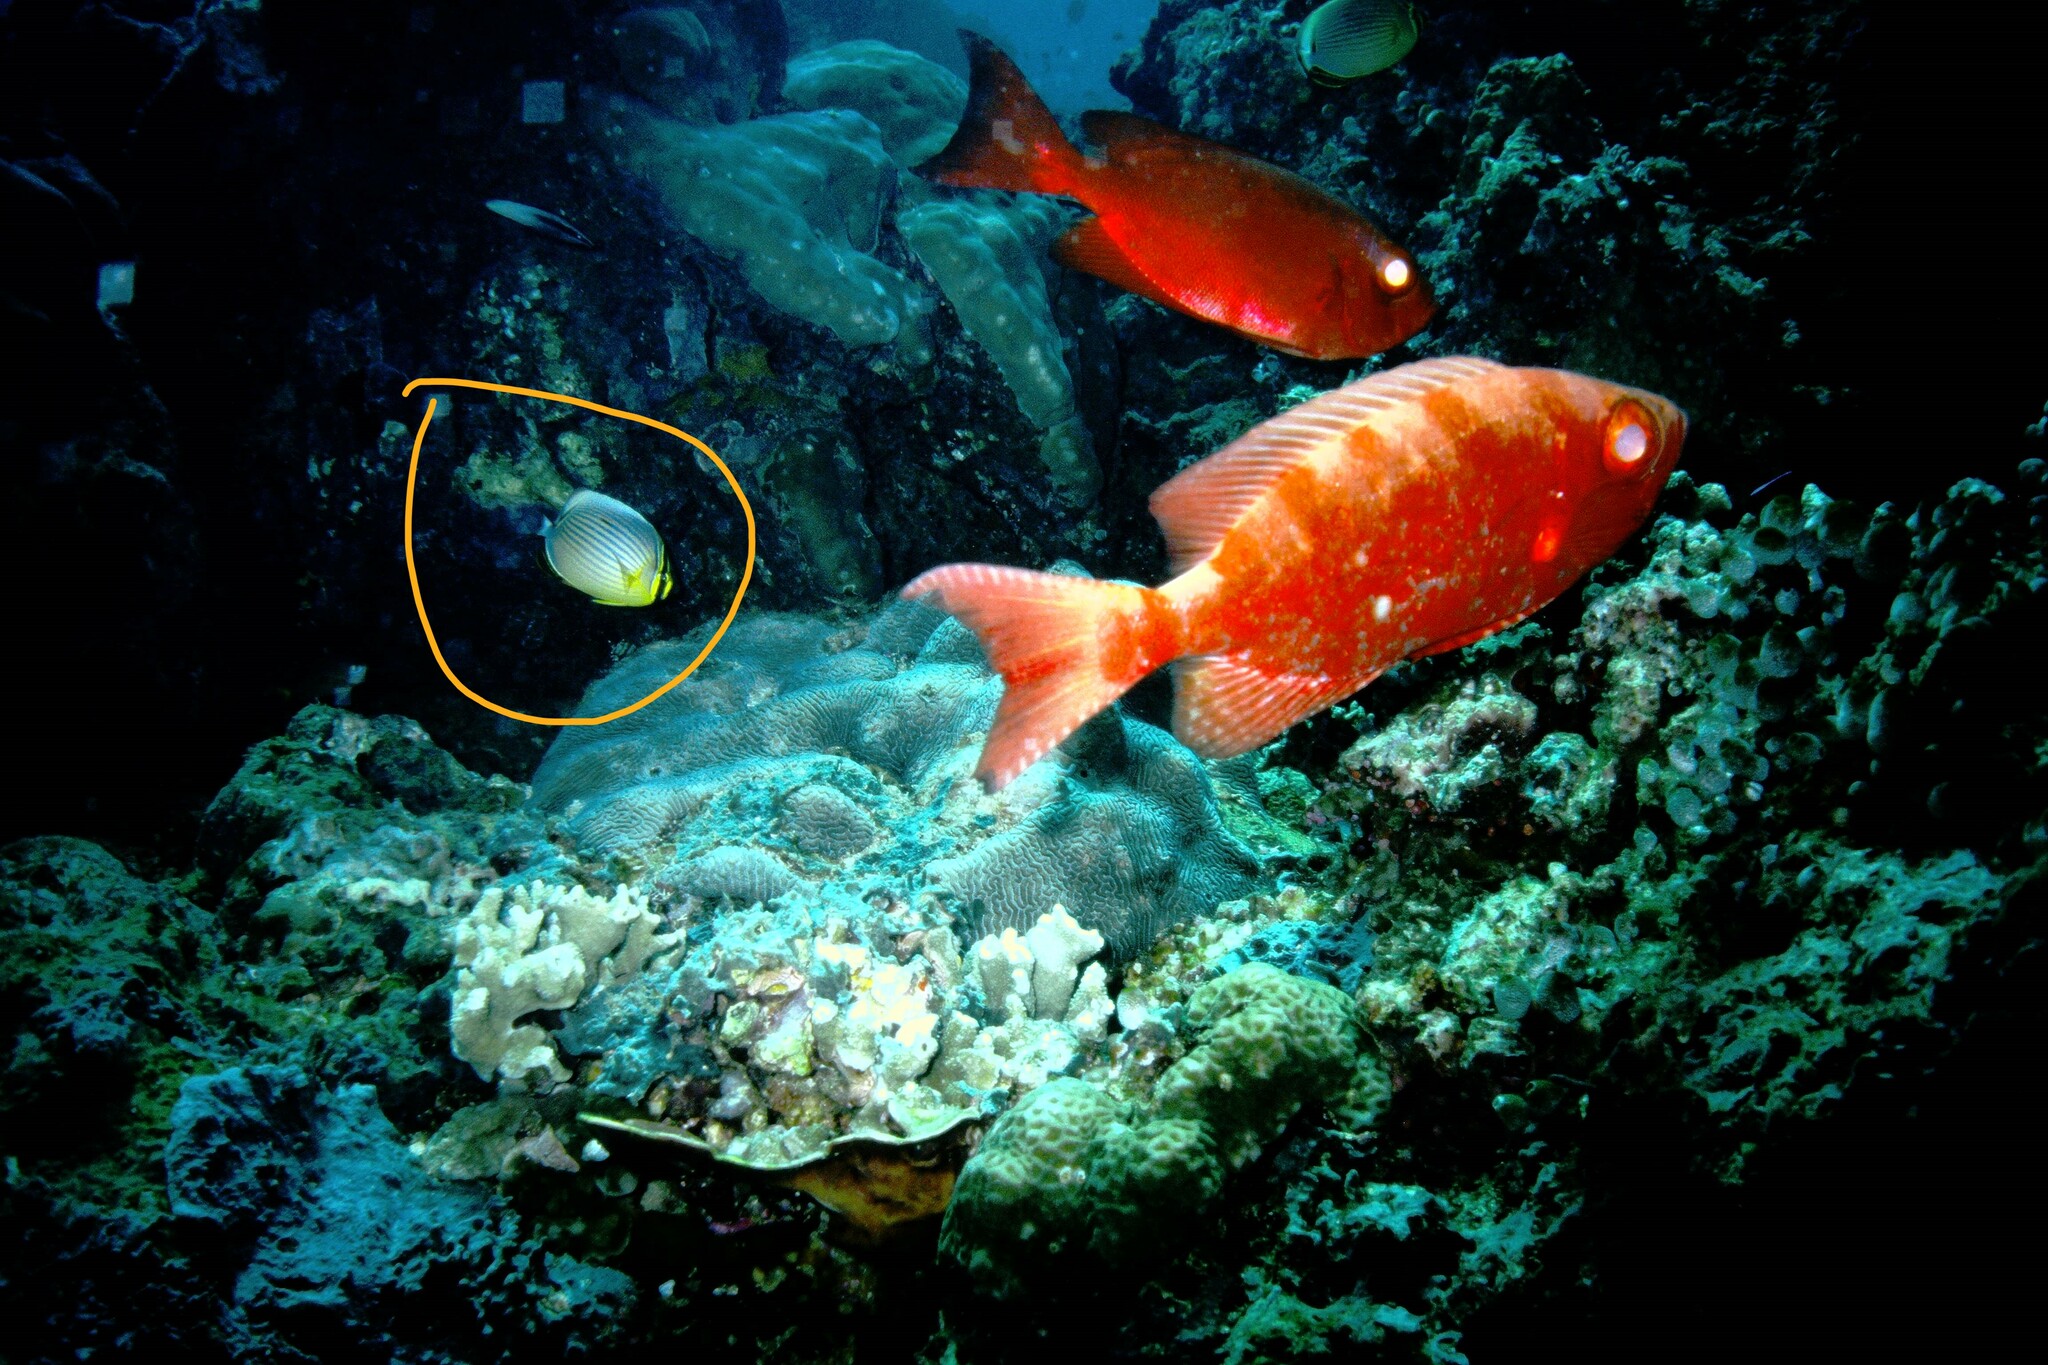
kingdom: Animalia
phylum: Chordata
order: Perciformes
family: Chaetodontidae
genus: Chaetodon
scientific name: Chaetodon lunulatus
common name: Redfin butterflyfish
